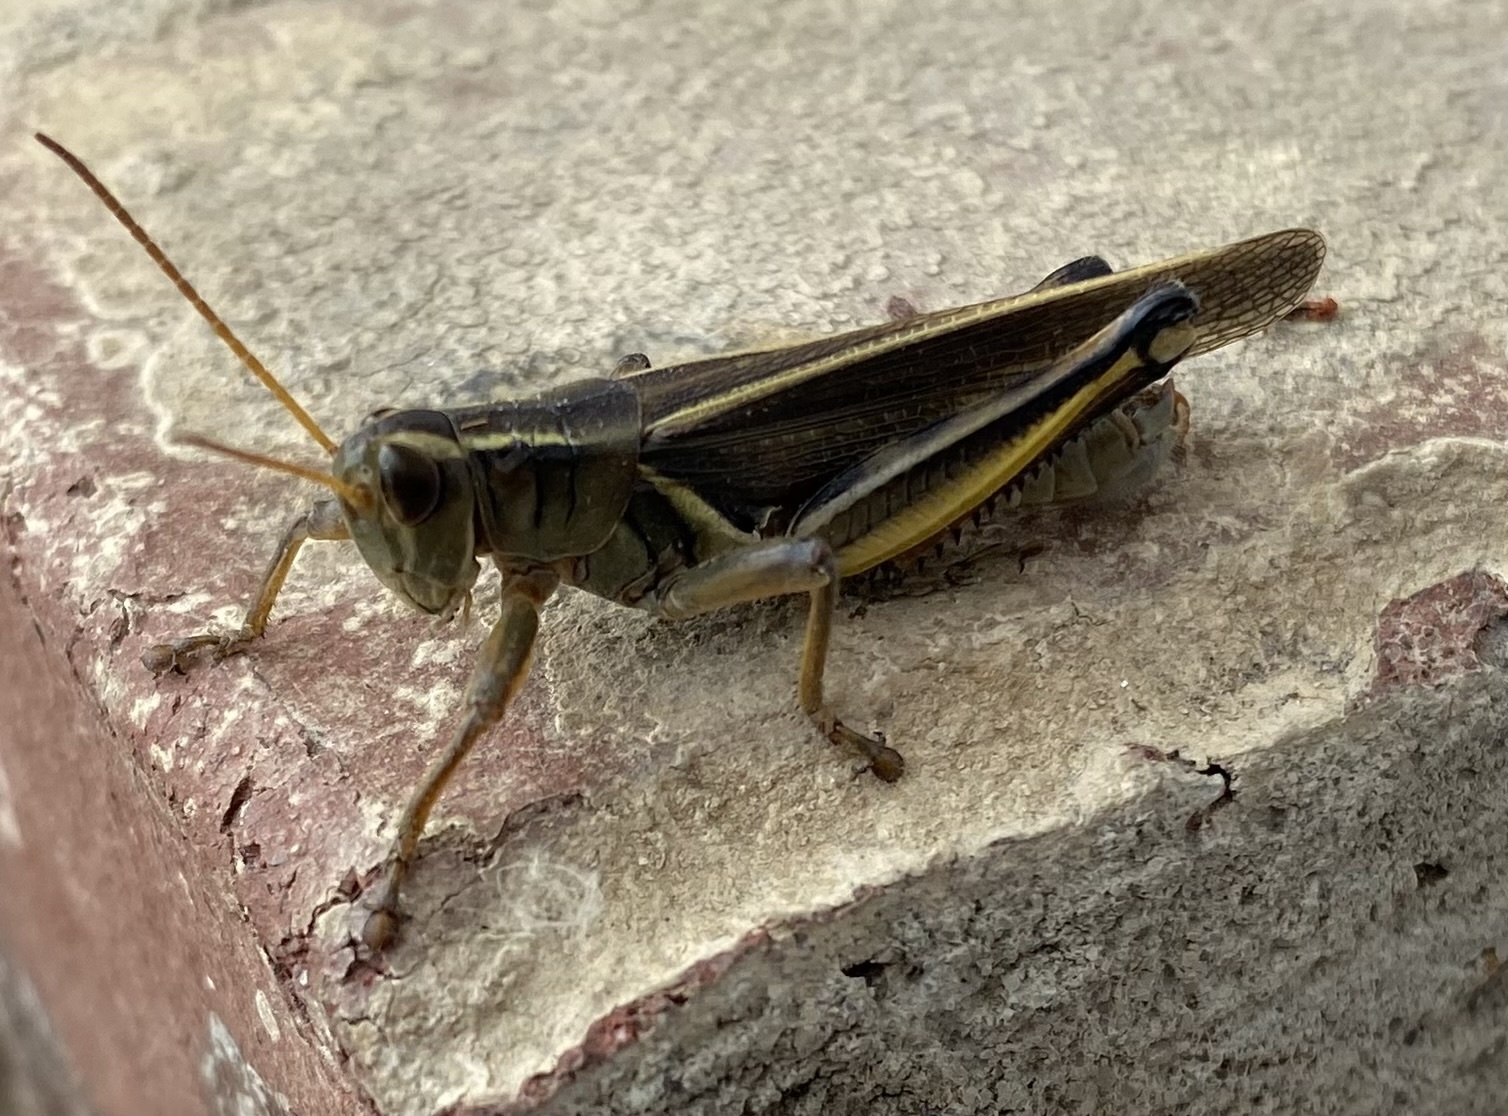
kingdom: Animalia
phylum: Arthropoda
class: Insecta
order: Orthoptera
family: Acrididae
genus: Melanoplus
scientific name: Melanoplus bivittatus
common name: Two-striped grasshopper
